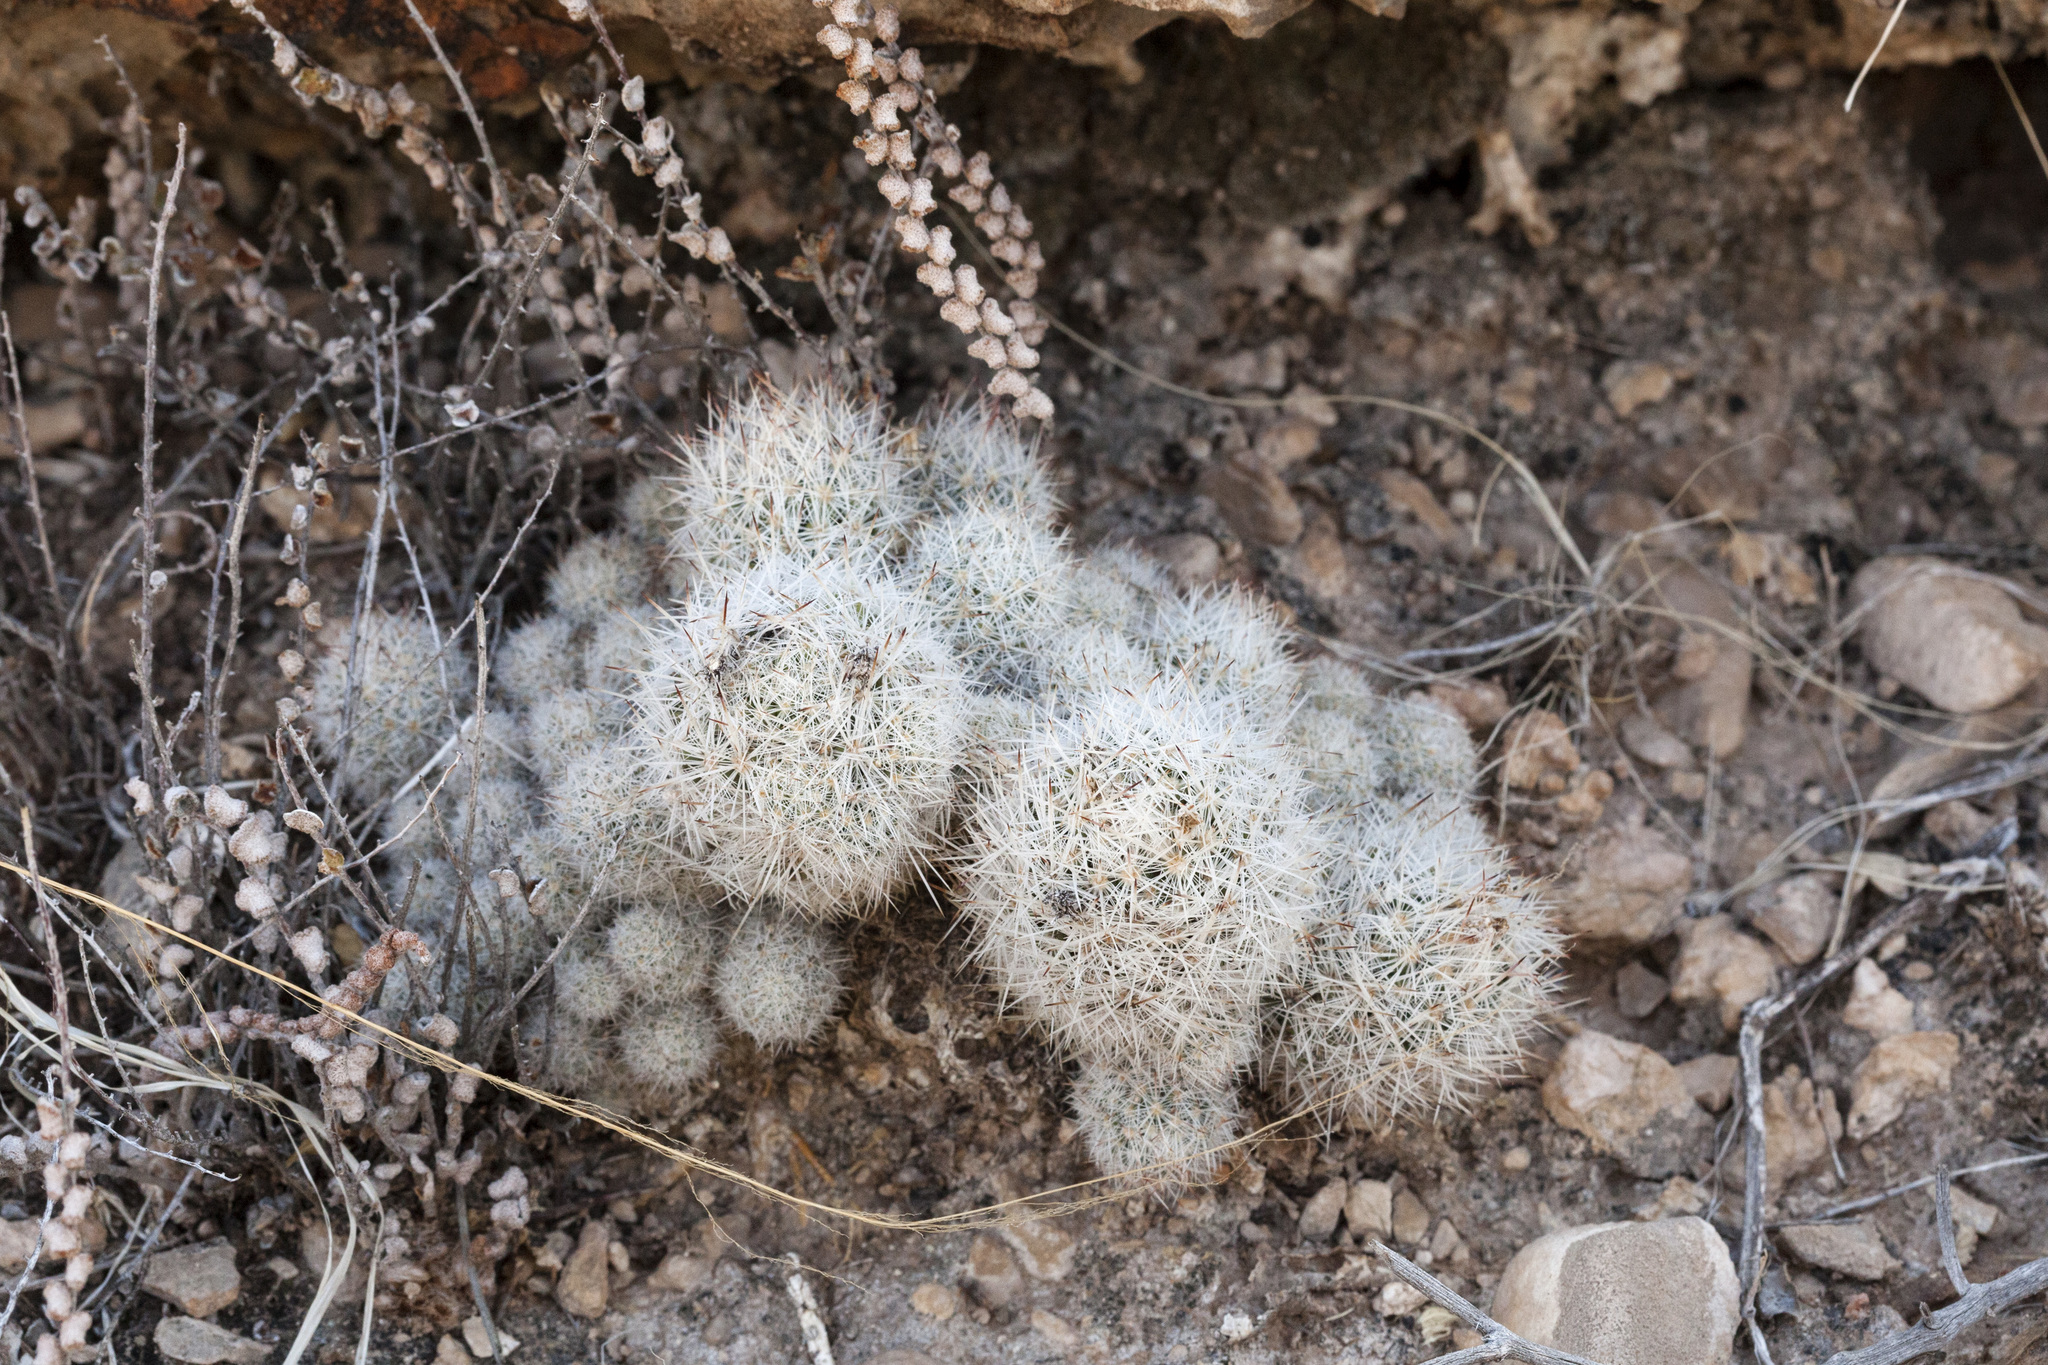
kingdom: Plantae
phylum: Tracheophyta
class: Magnoliopsida
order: Caryophyllales
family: Cactaceae
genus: Pelecyphora
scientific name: Pelecyphora sneedii
